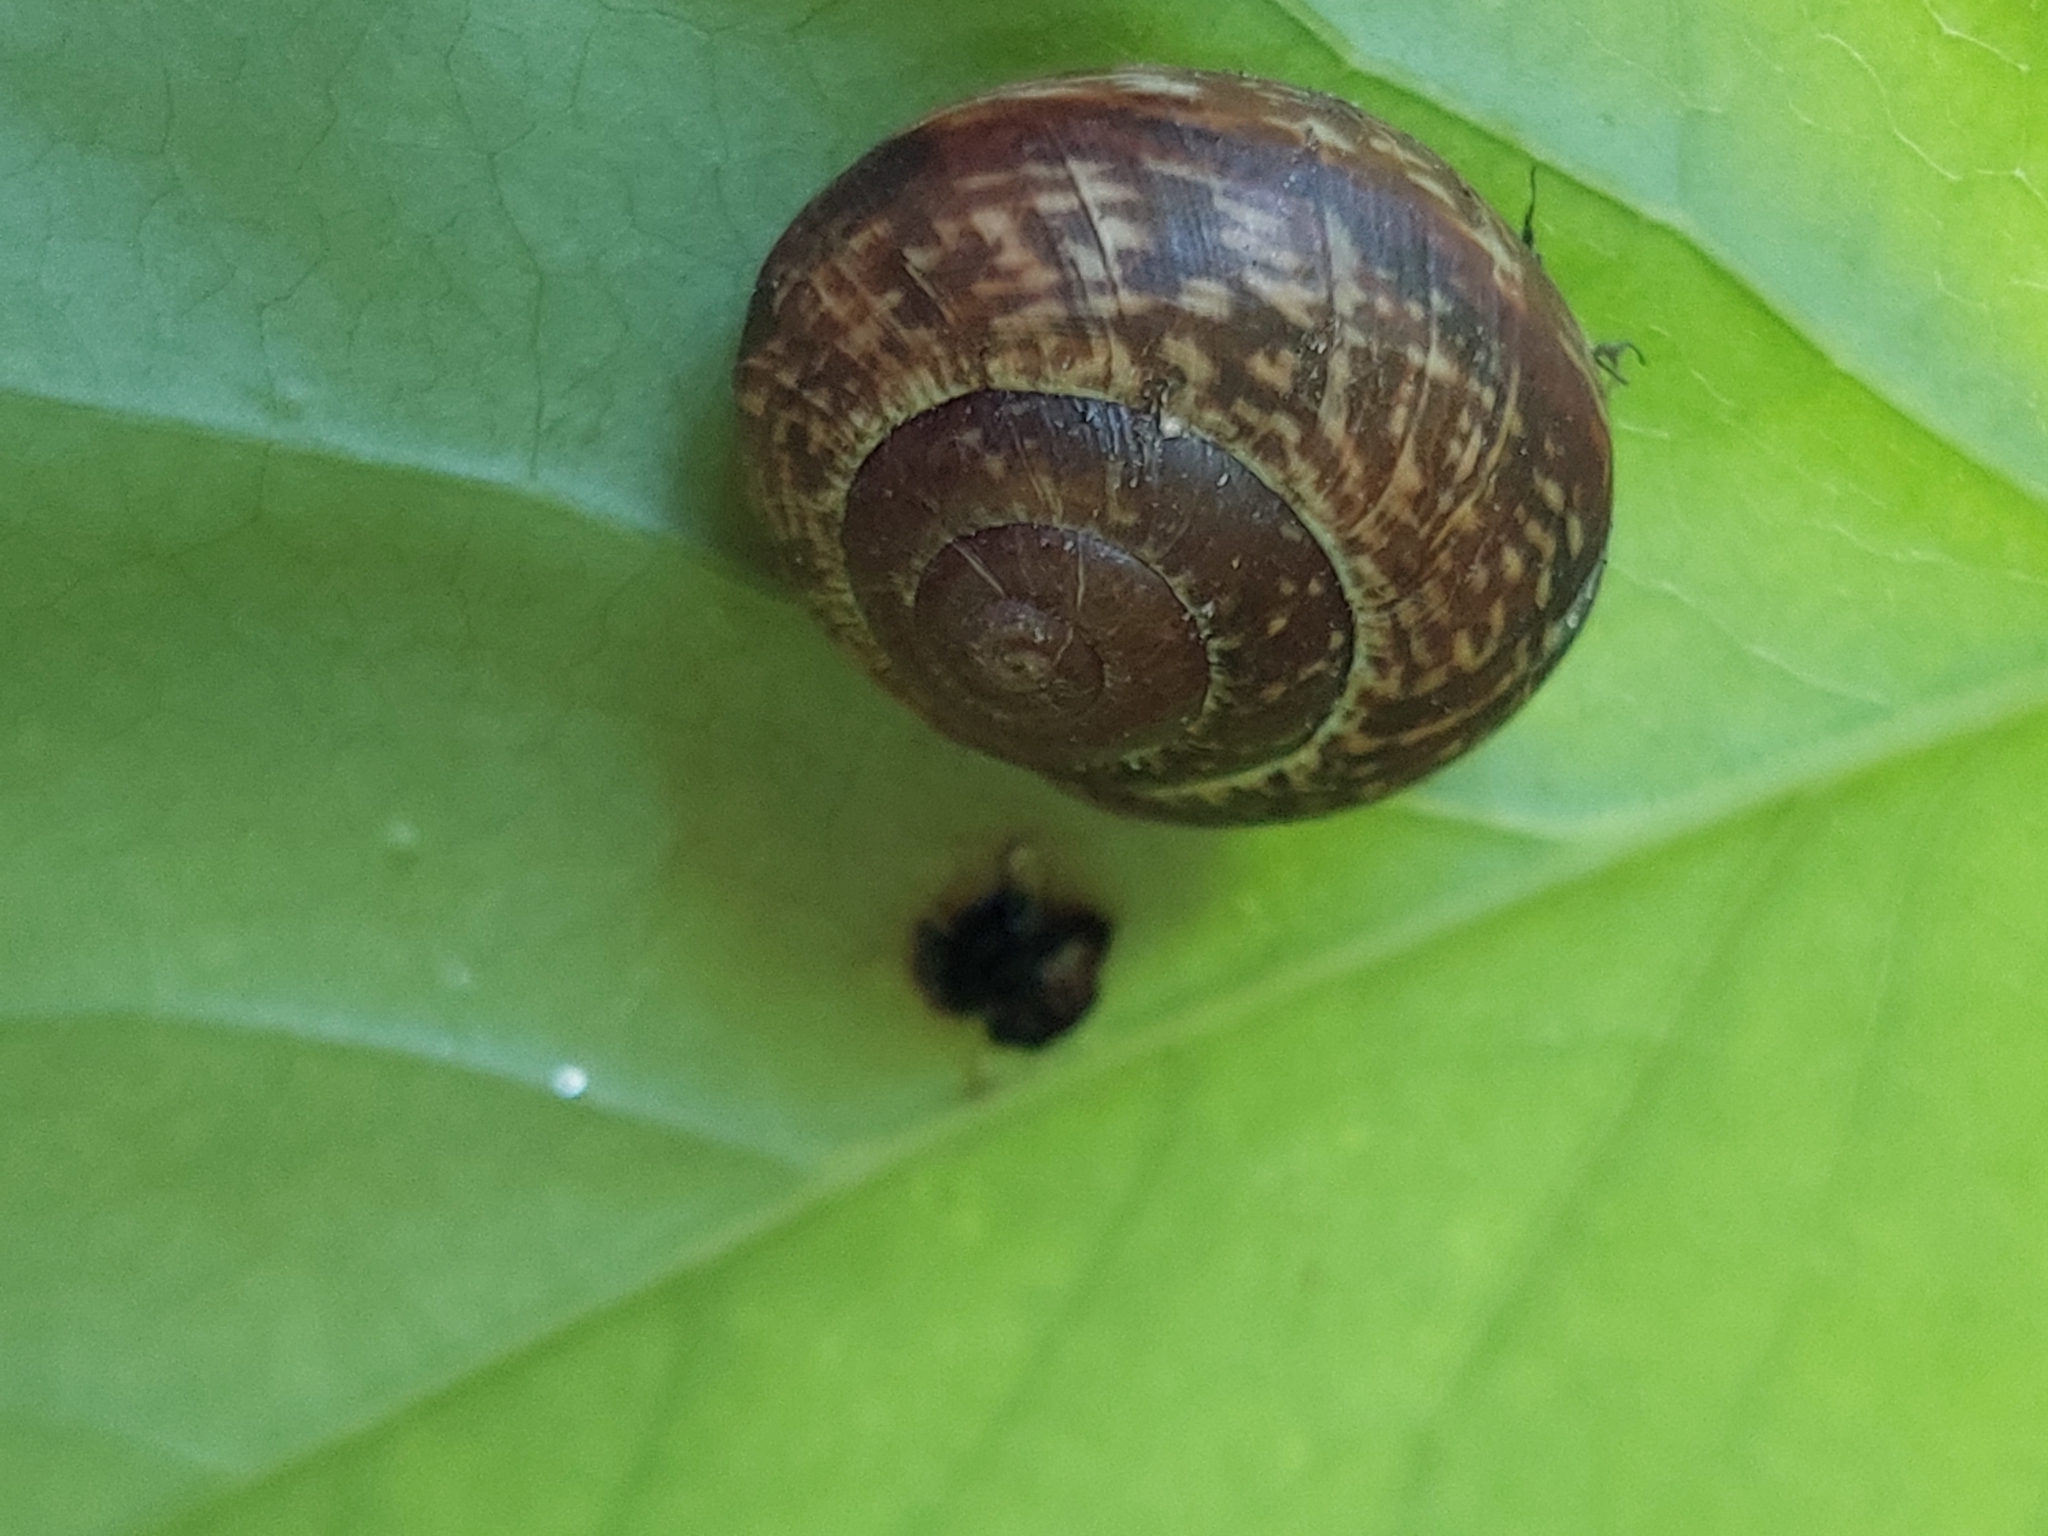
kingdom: Animalia
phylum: Mollusca
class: Gastropoda
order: Stylommatophora
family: Helicidae
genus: Arianta
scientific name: Arianta arbustorum
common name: Copse snail
